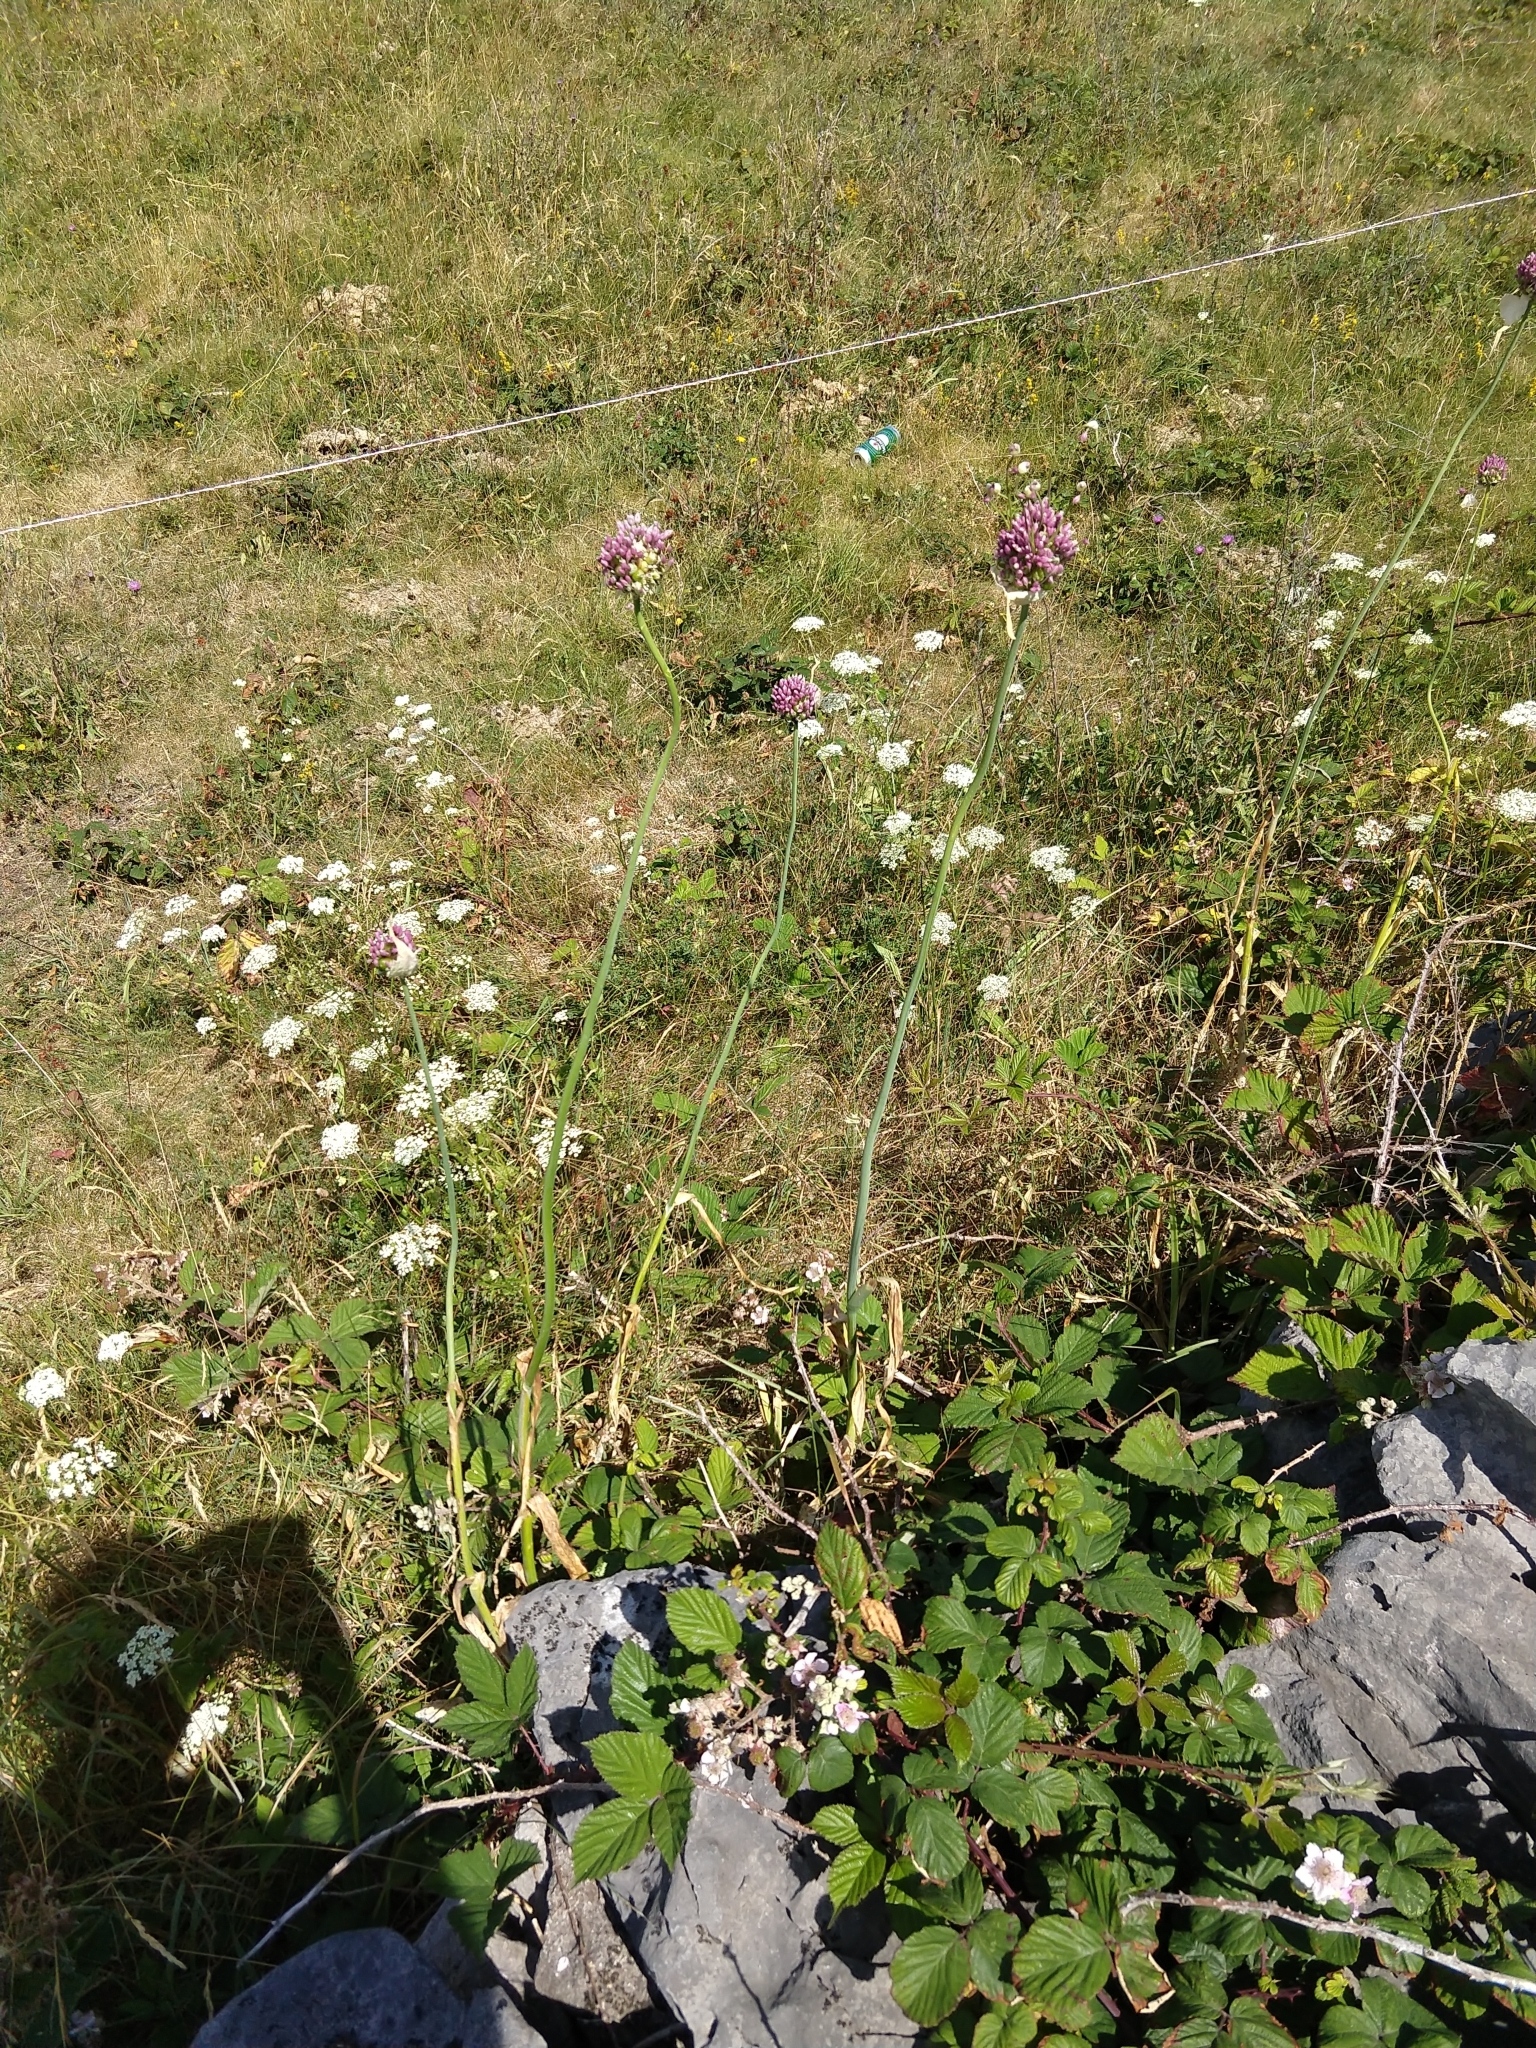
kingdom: Plantae
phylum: Tracheophyta
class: Liliopsida
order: Asparagales
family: Amaryllidaceae
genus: Allium
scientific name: Allium ampeloprasum
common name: Wild leek
